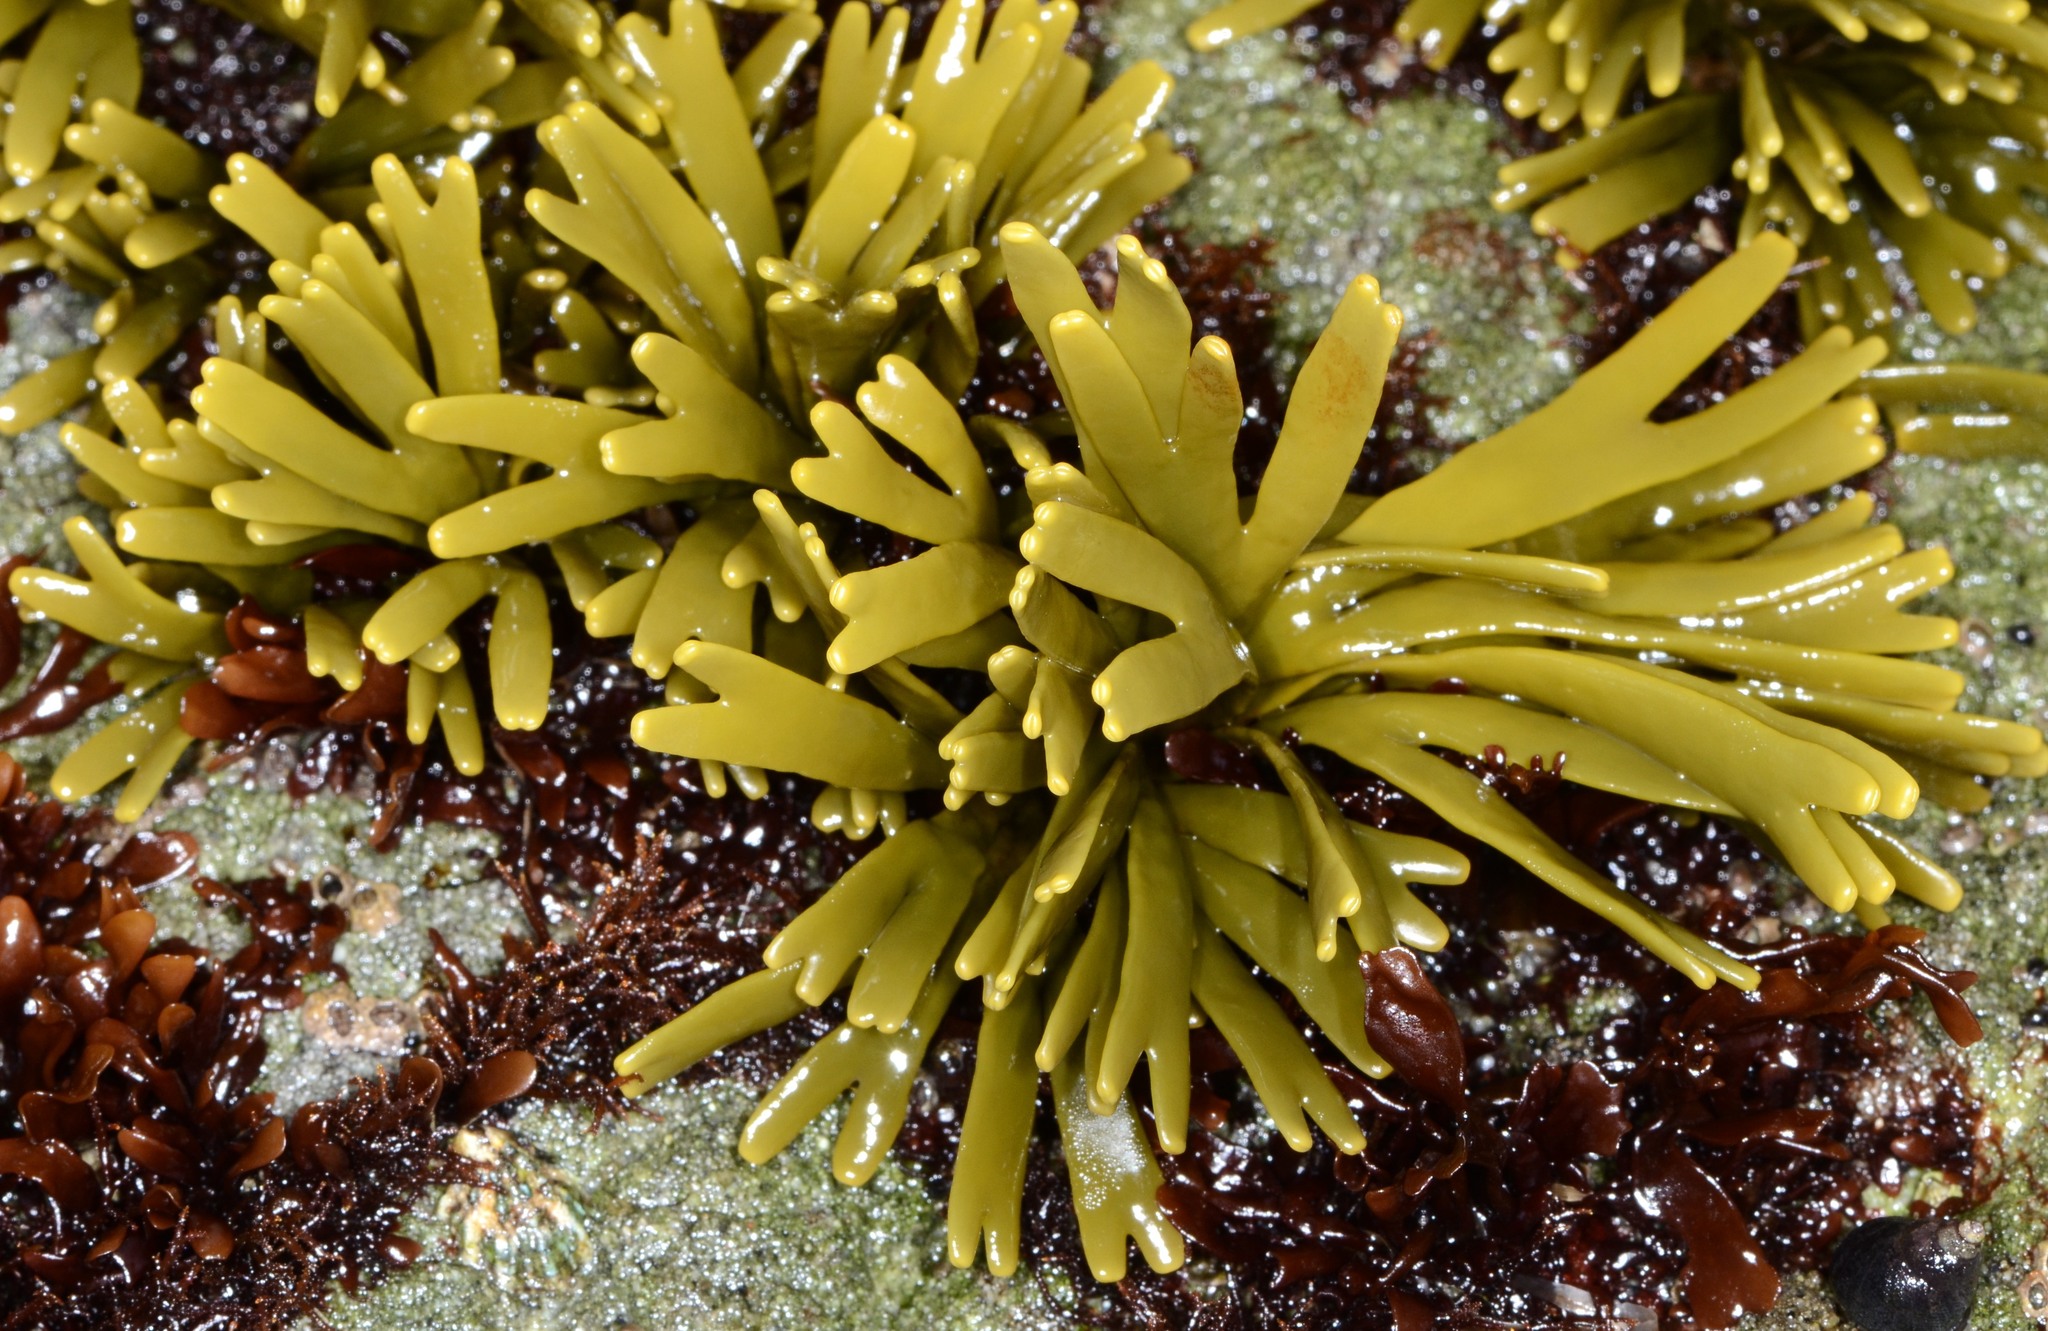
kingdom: Chromista
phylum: Ochrophyta
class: Phaeophyceae
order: Fucales
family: Fucaceae
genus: Pelvetiopsis
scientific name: Pelvetiopsis limitata
